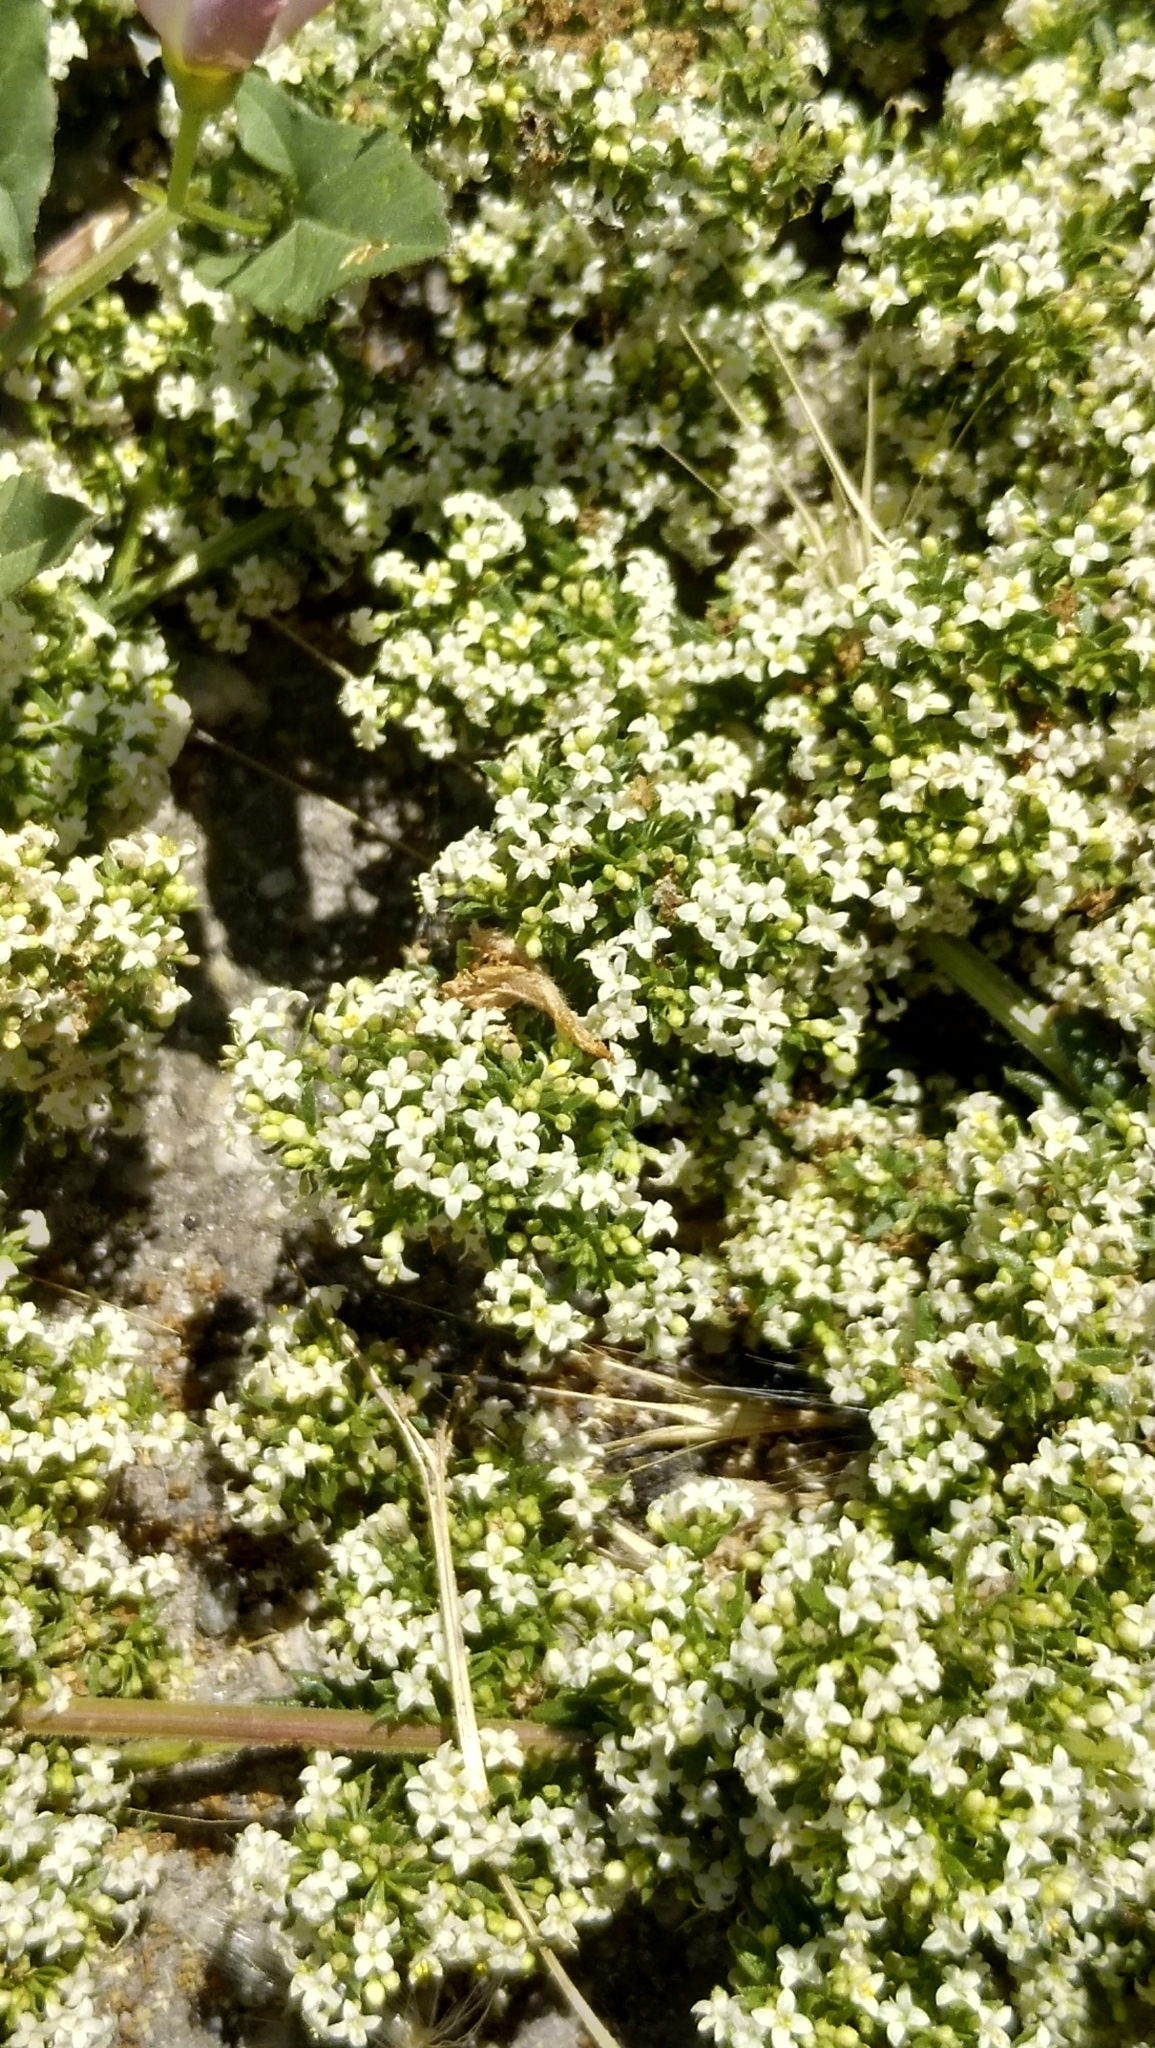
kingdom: Plantae
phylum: Tracheophyta
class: Magnoliopsida
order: Gentianales
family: Rubiaceae
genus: Galium
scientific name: Galium humifusum
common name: Spreading bedstraw
